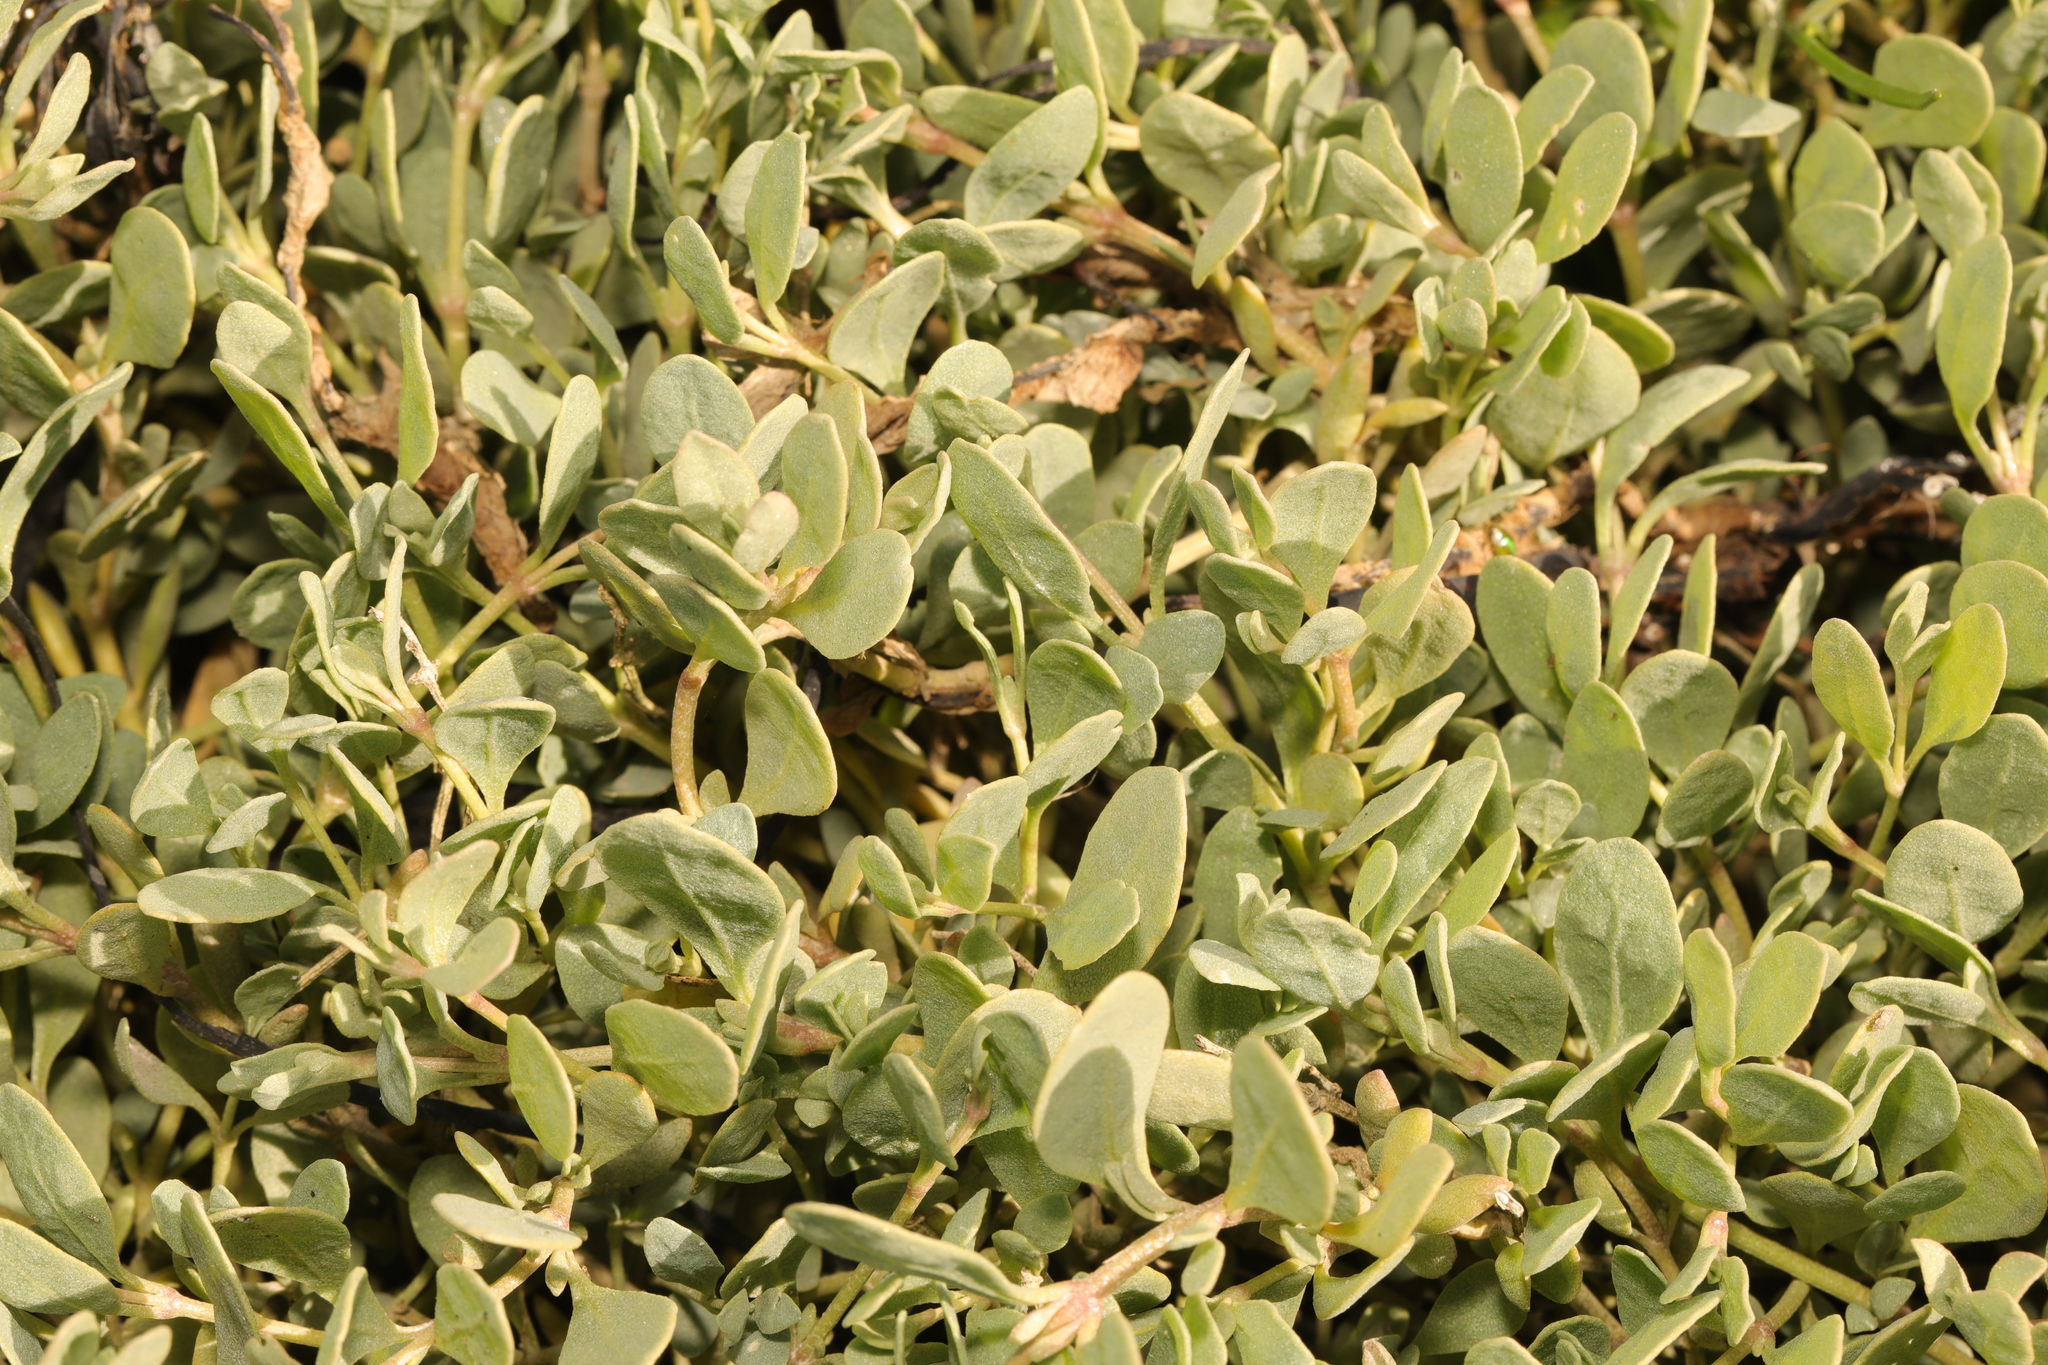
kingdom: Plantae
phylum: Tracheophyta
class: Magnoliopsida
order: Caryophyllales
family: Amaranthaceae
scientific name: Amaranthaceae
